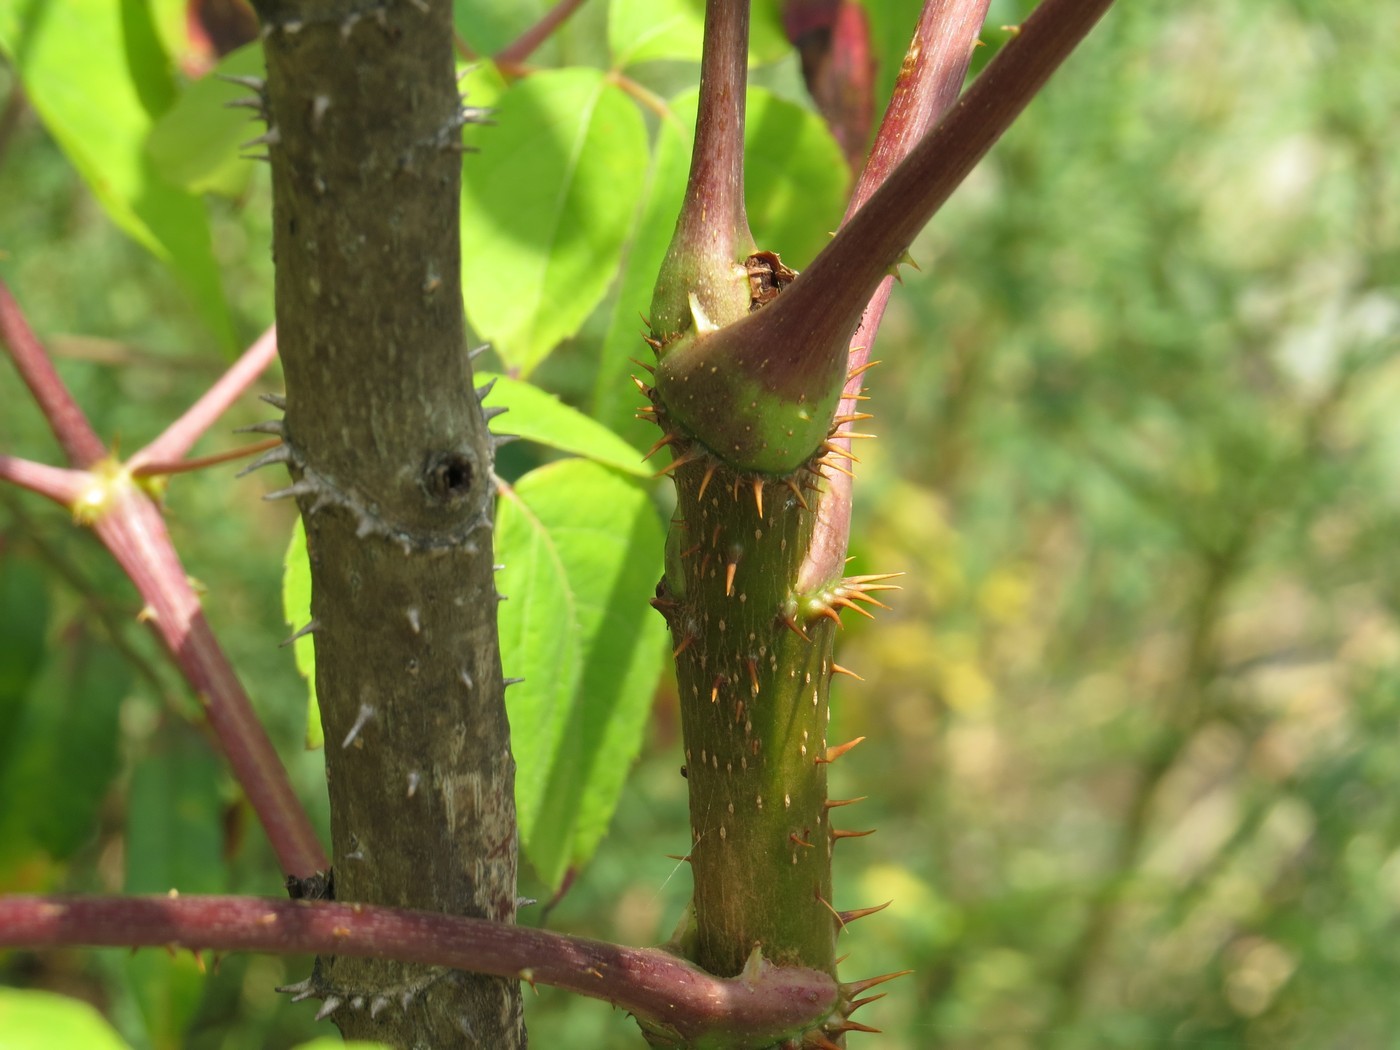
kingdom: Plantae
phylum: Tracheophyta
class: Magnoliopsida
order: Apiales
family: Araliaceae
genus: Aralia
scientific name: Aralia spinosa
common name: Hercules'-club
